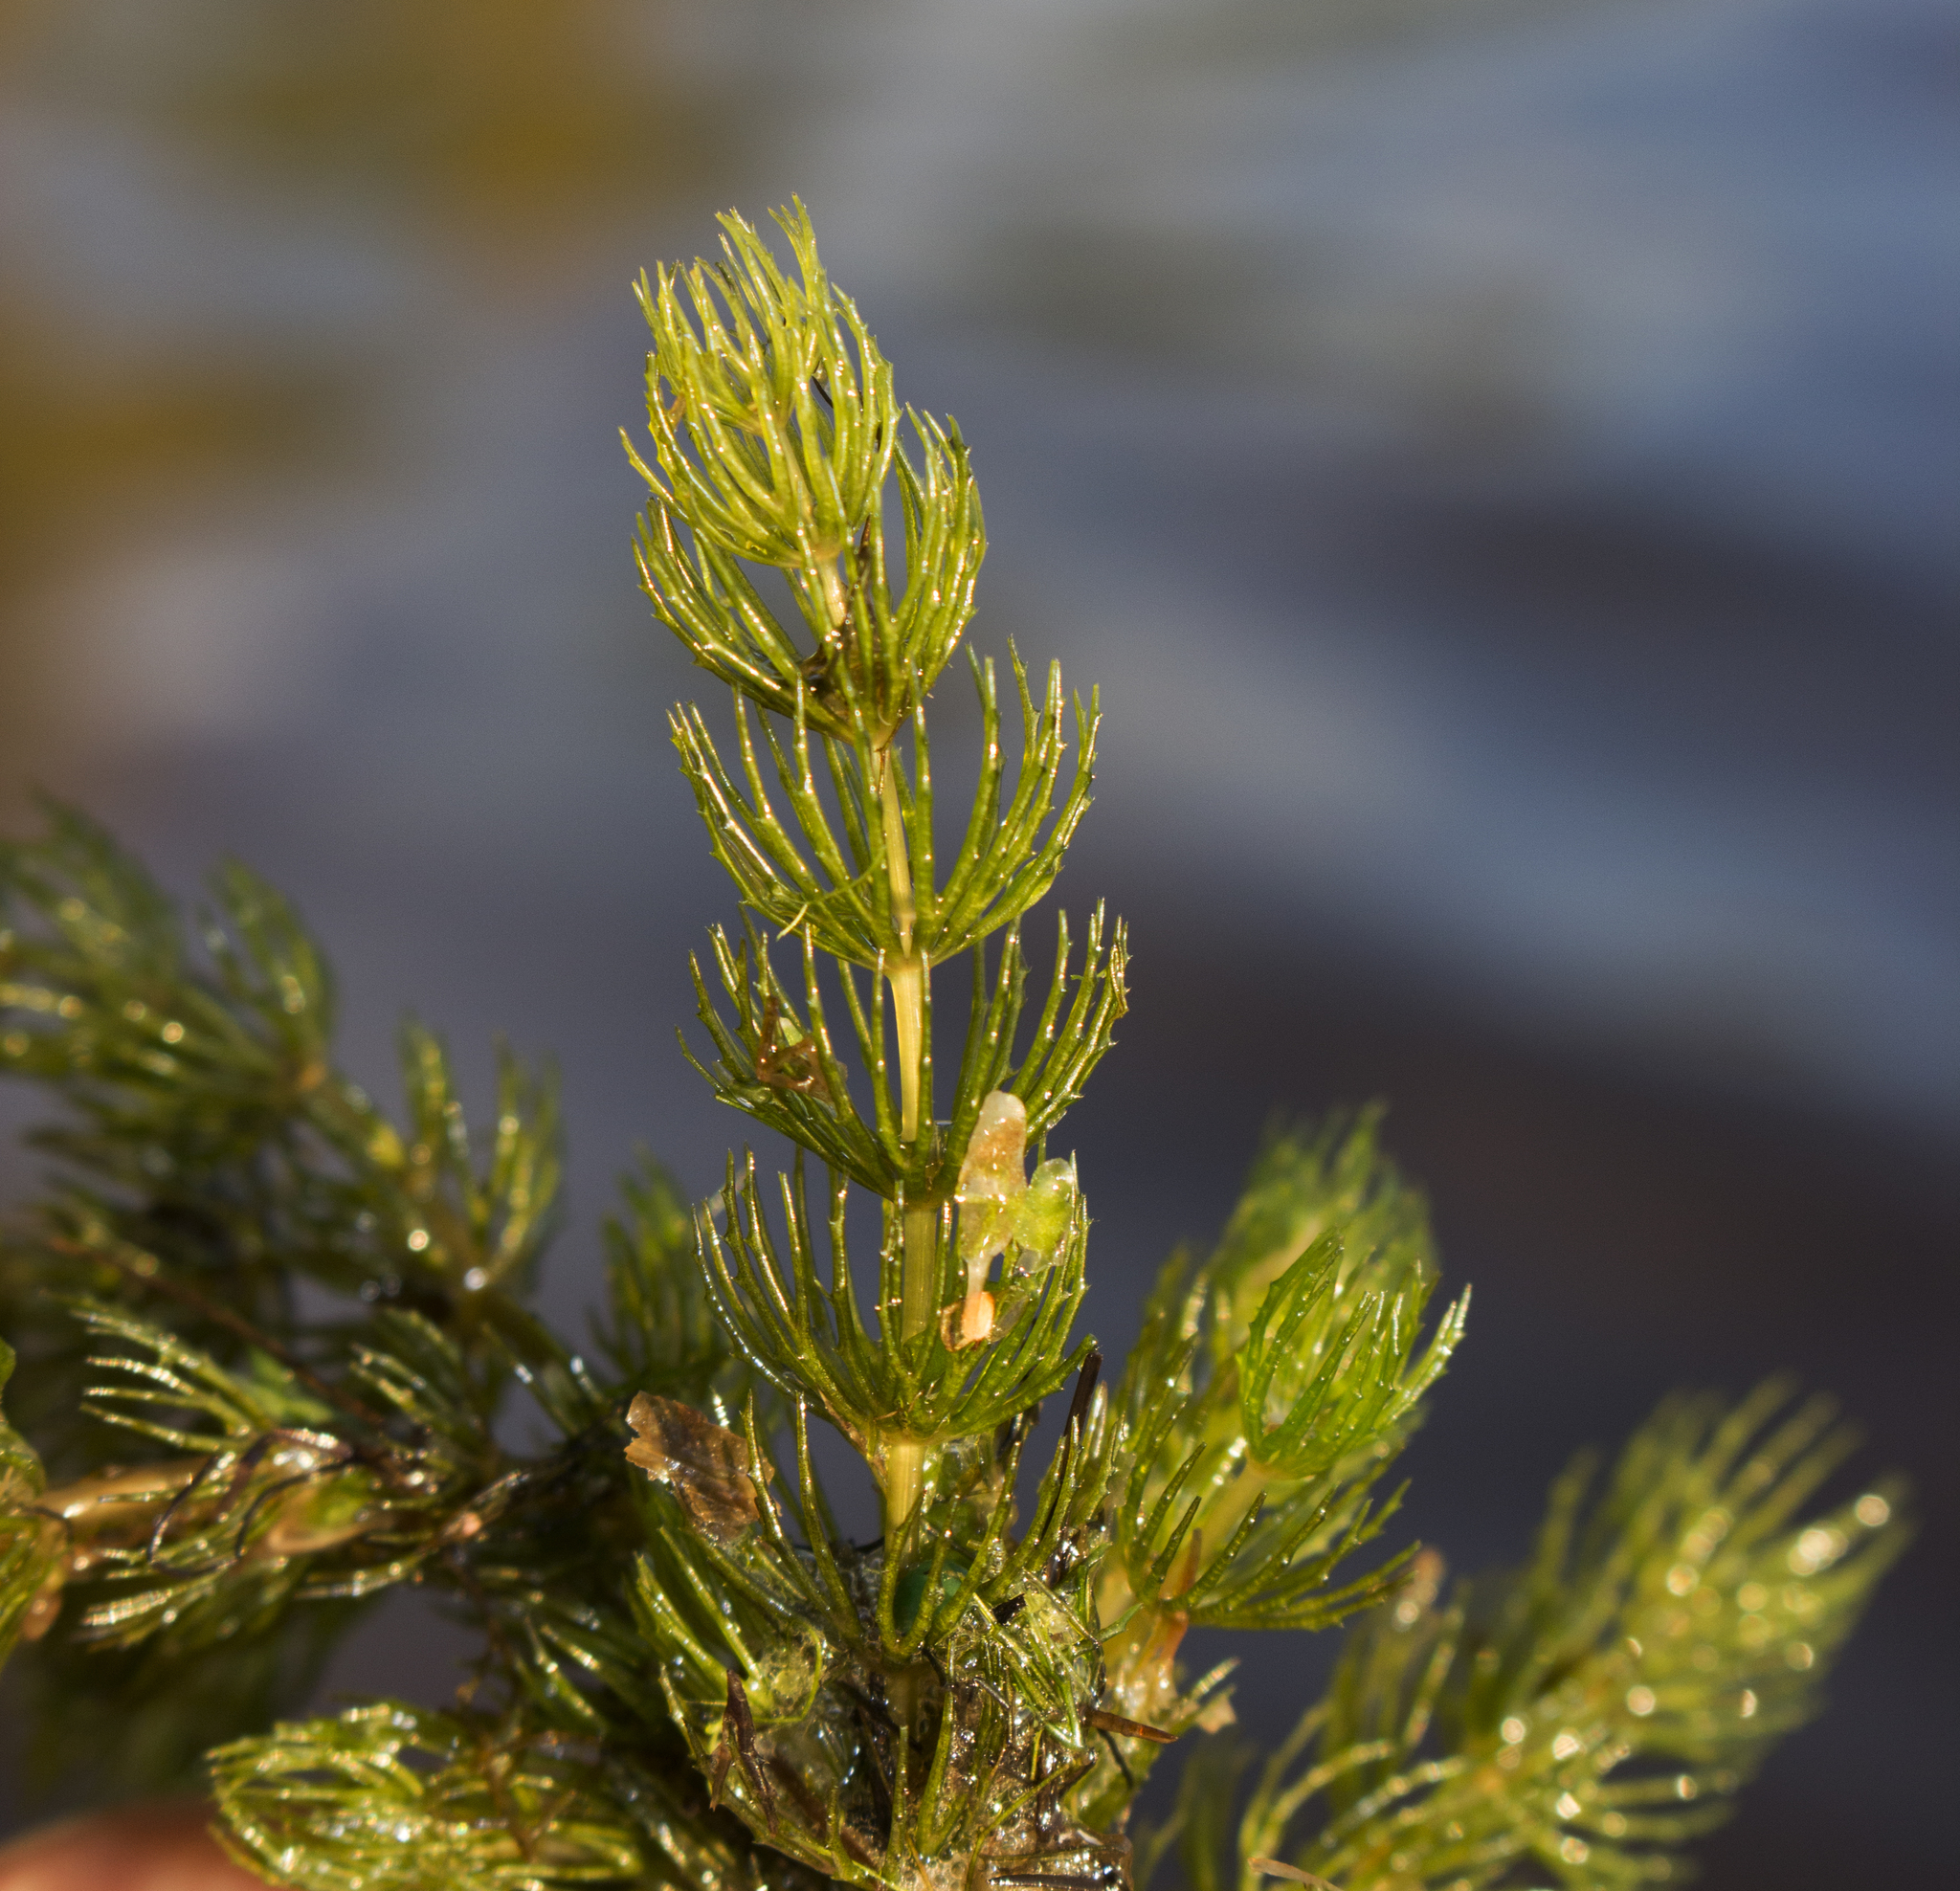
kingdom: Plantae
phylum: Tracheophyta
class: Magnoliopsida
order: Ceratophyllales
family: Ceratophyllaceae
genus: Ceratophyllum
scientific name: Ceratophyllum demersum
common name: Rigid hornwort
